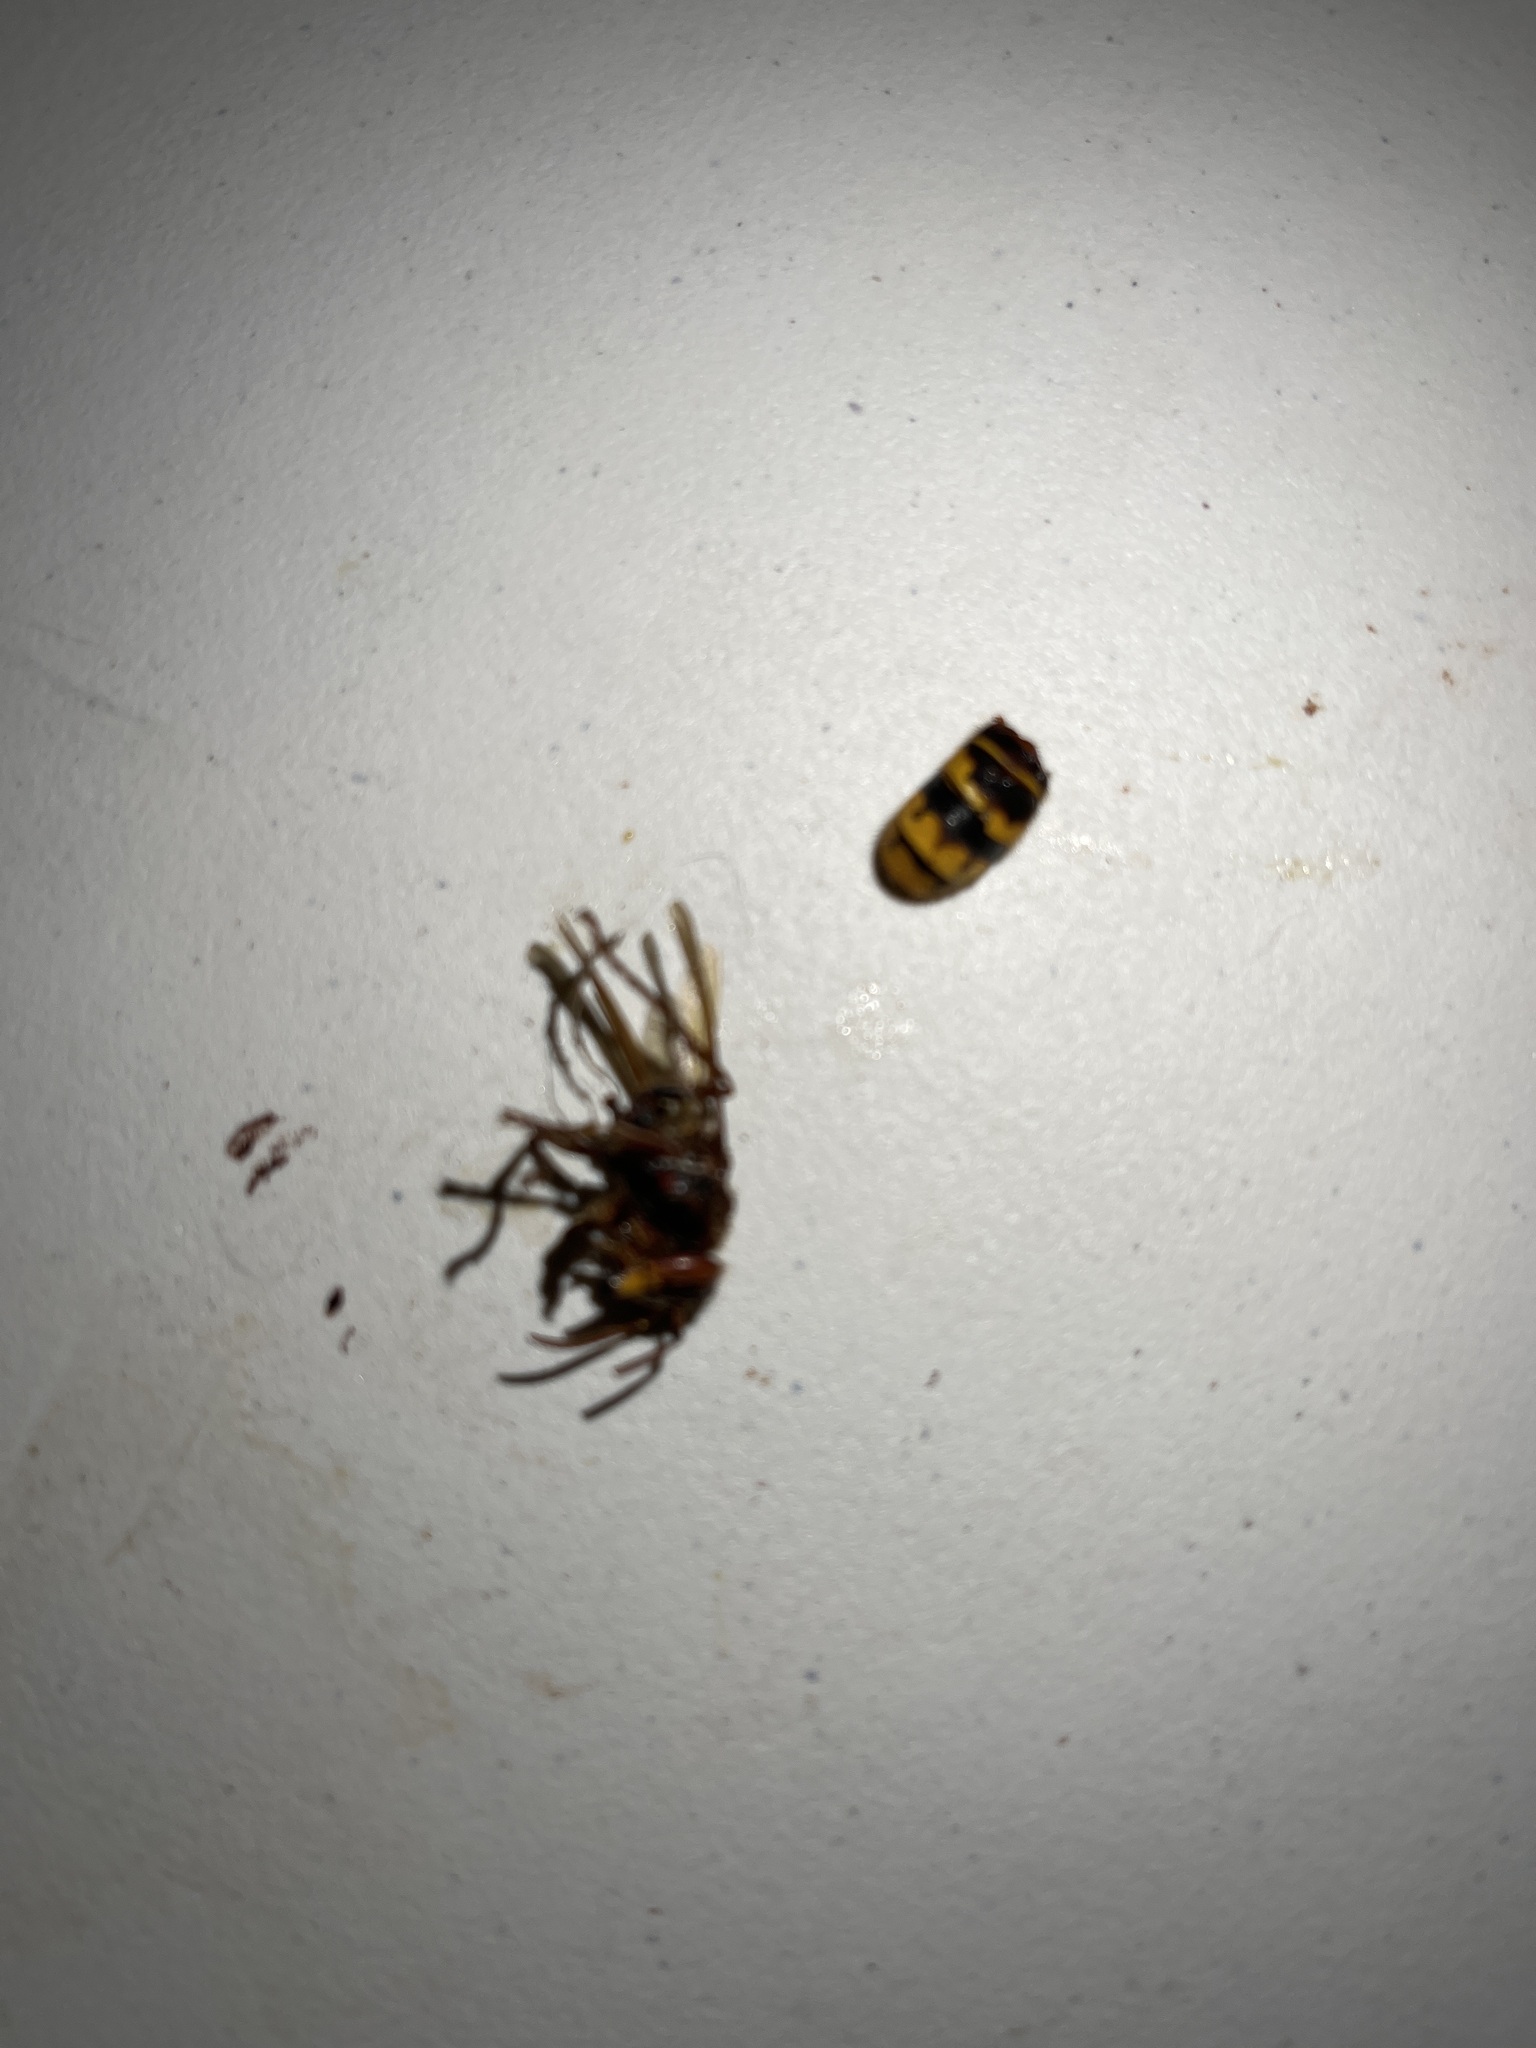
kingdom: Animalia
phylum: Arthropoda
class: Insecta
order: Hymenoptera
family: Vespidae
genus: Vespa
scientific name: Vespa crabro
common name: Hornet
